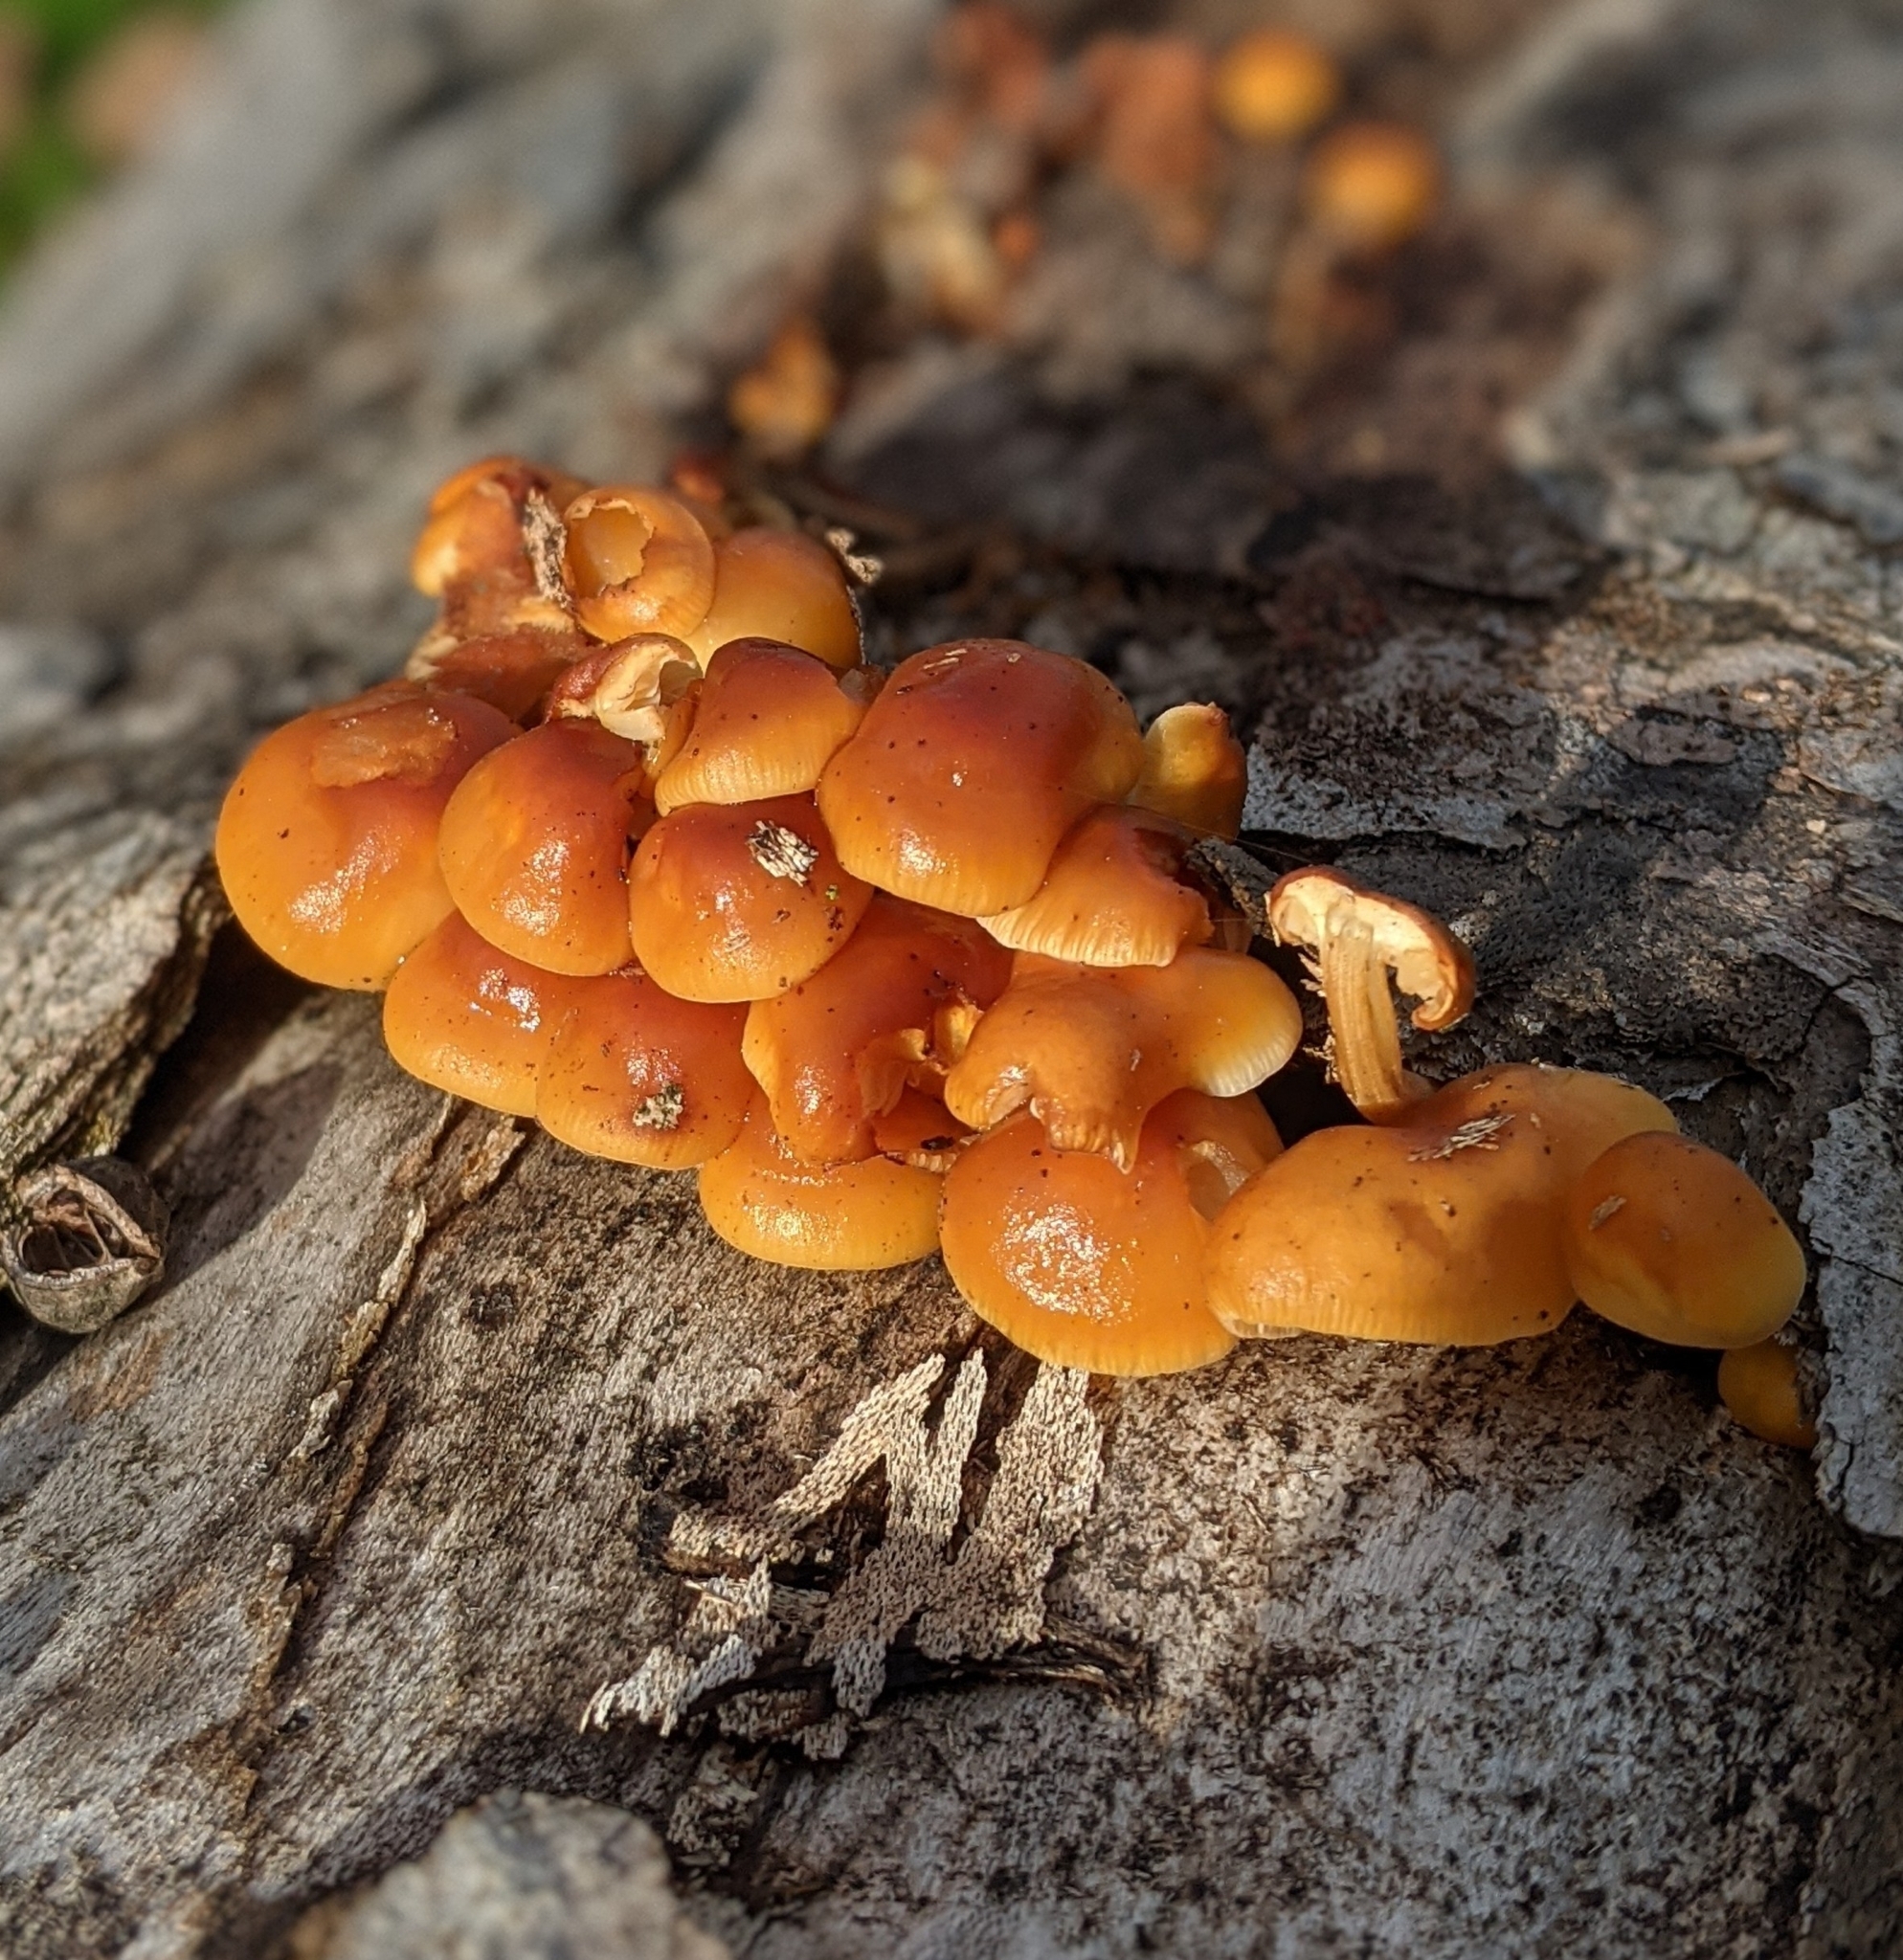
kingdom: Fungi
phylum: Basidiomycota
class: Agaricomycetes
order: Agaricales
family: Physalacriaceae
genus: Flammulina
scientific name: Flammulina
